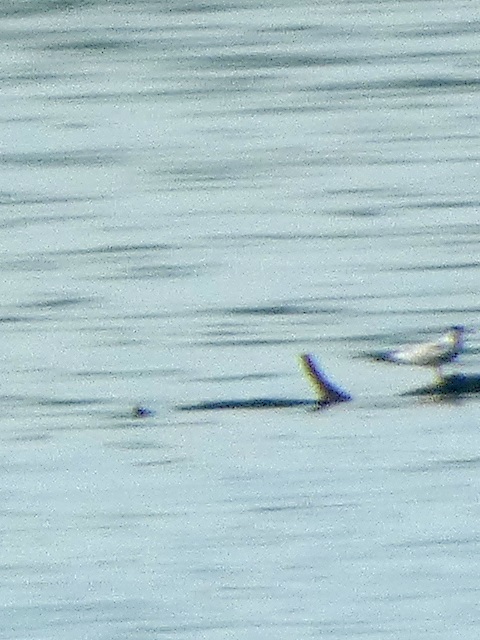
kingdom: Animalia
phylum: Chordata
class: Aves
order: Charadriiformes
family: Laridae
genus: Sterna
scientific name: Sterna hirundo
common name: Common tern
